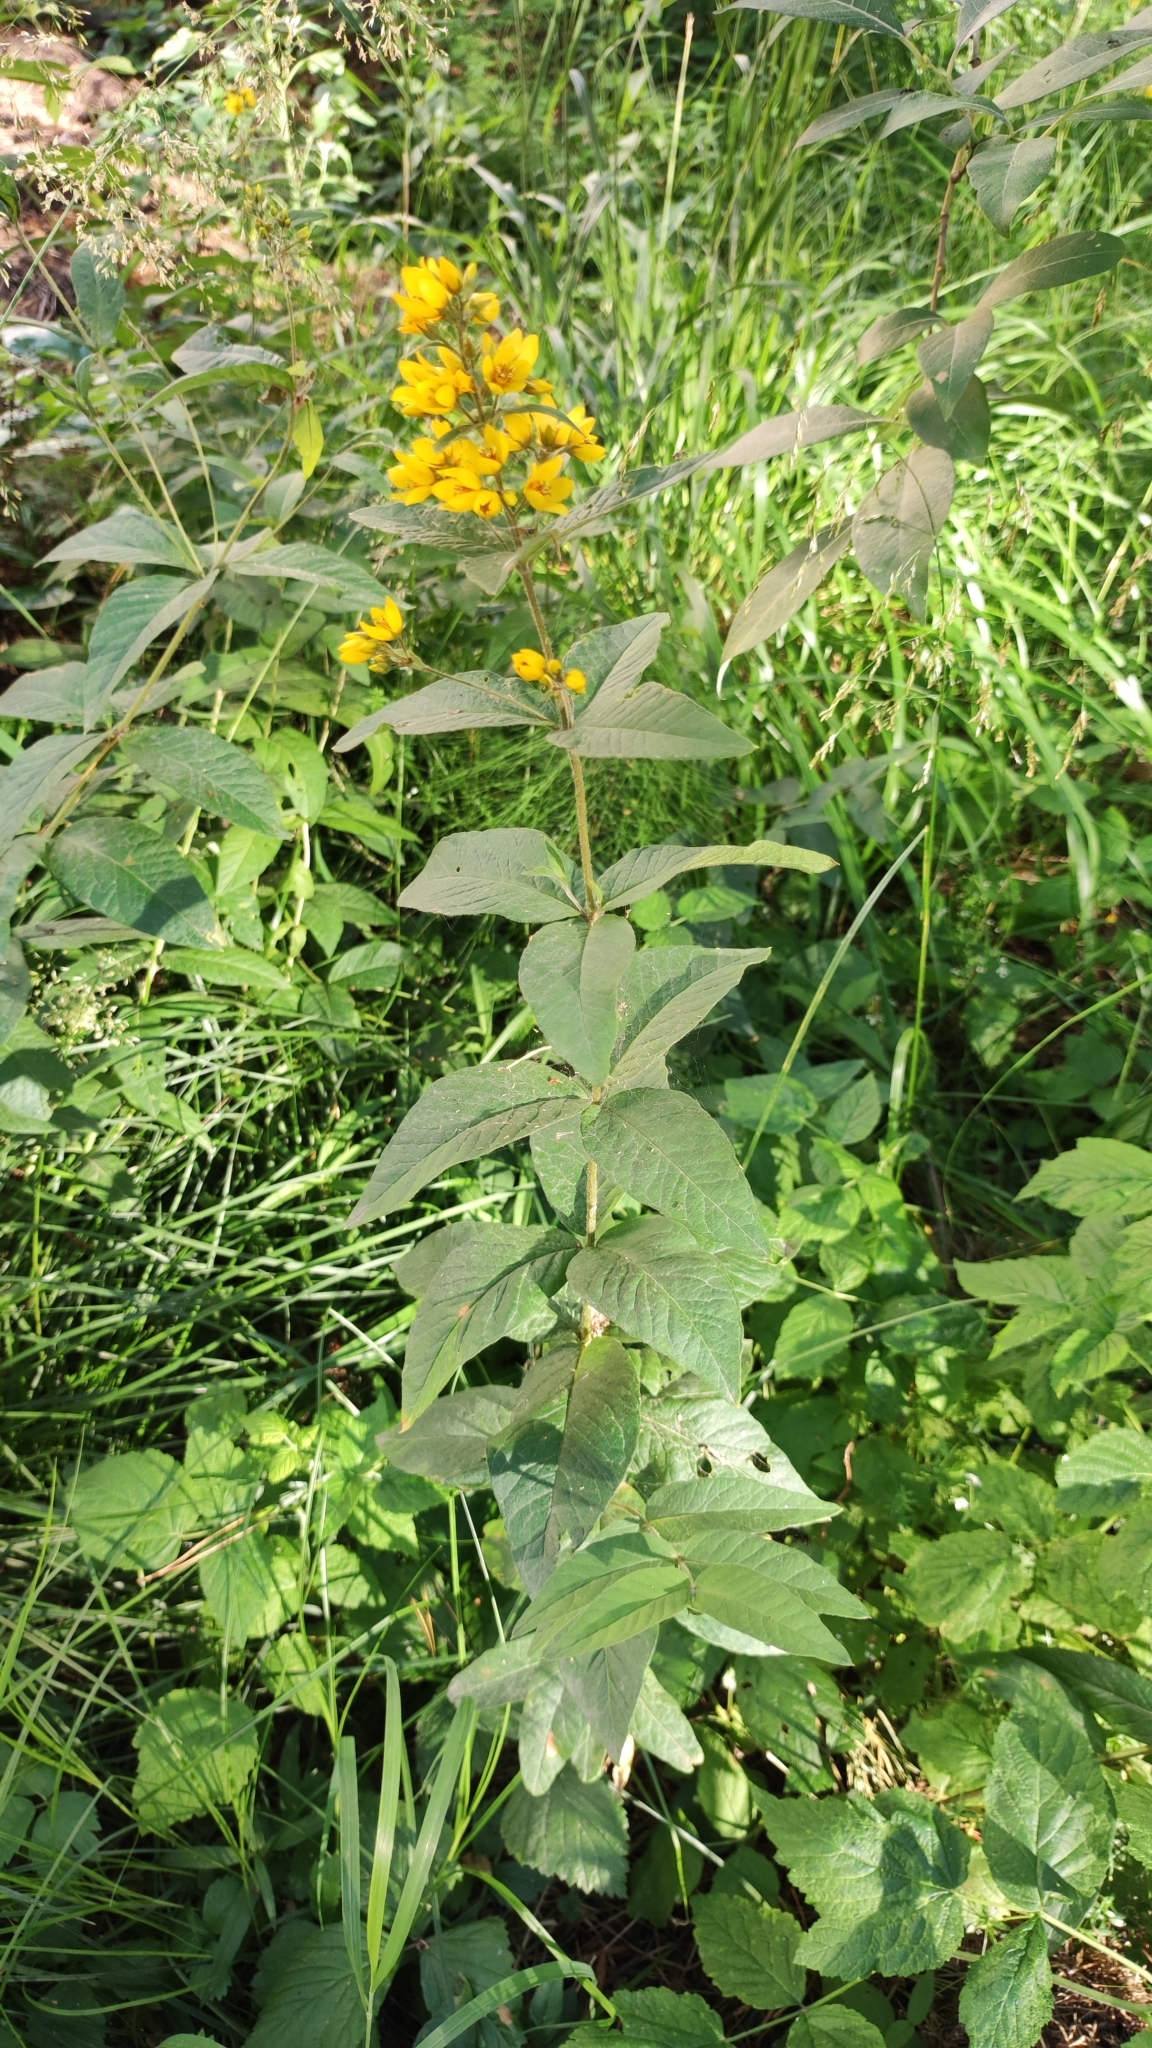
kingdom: Plantae
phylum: Tracheophyta
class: Magnoliopsida
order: Ericales
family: Primulaceae
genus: Lysimachia
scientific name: Lysimachia vulgaris
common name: Yellow loosestrife
